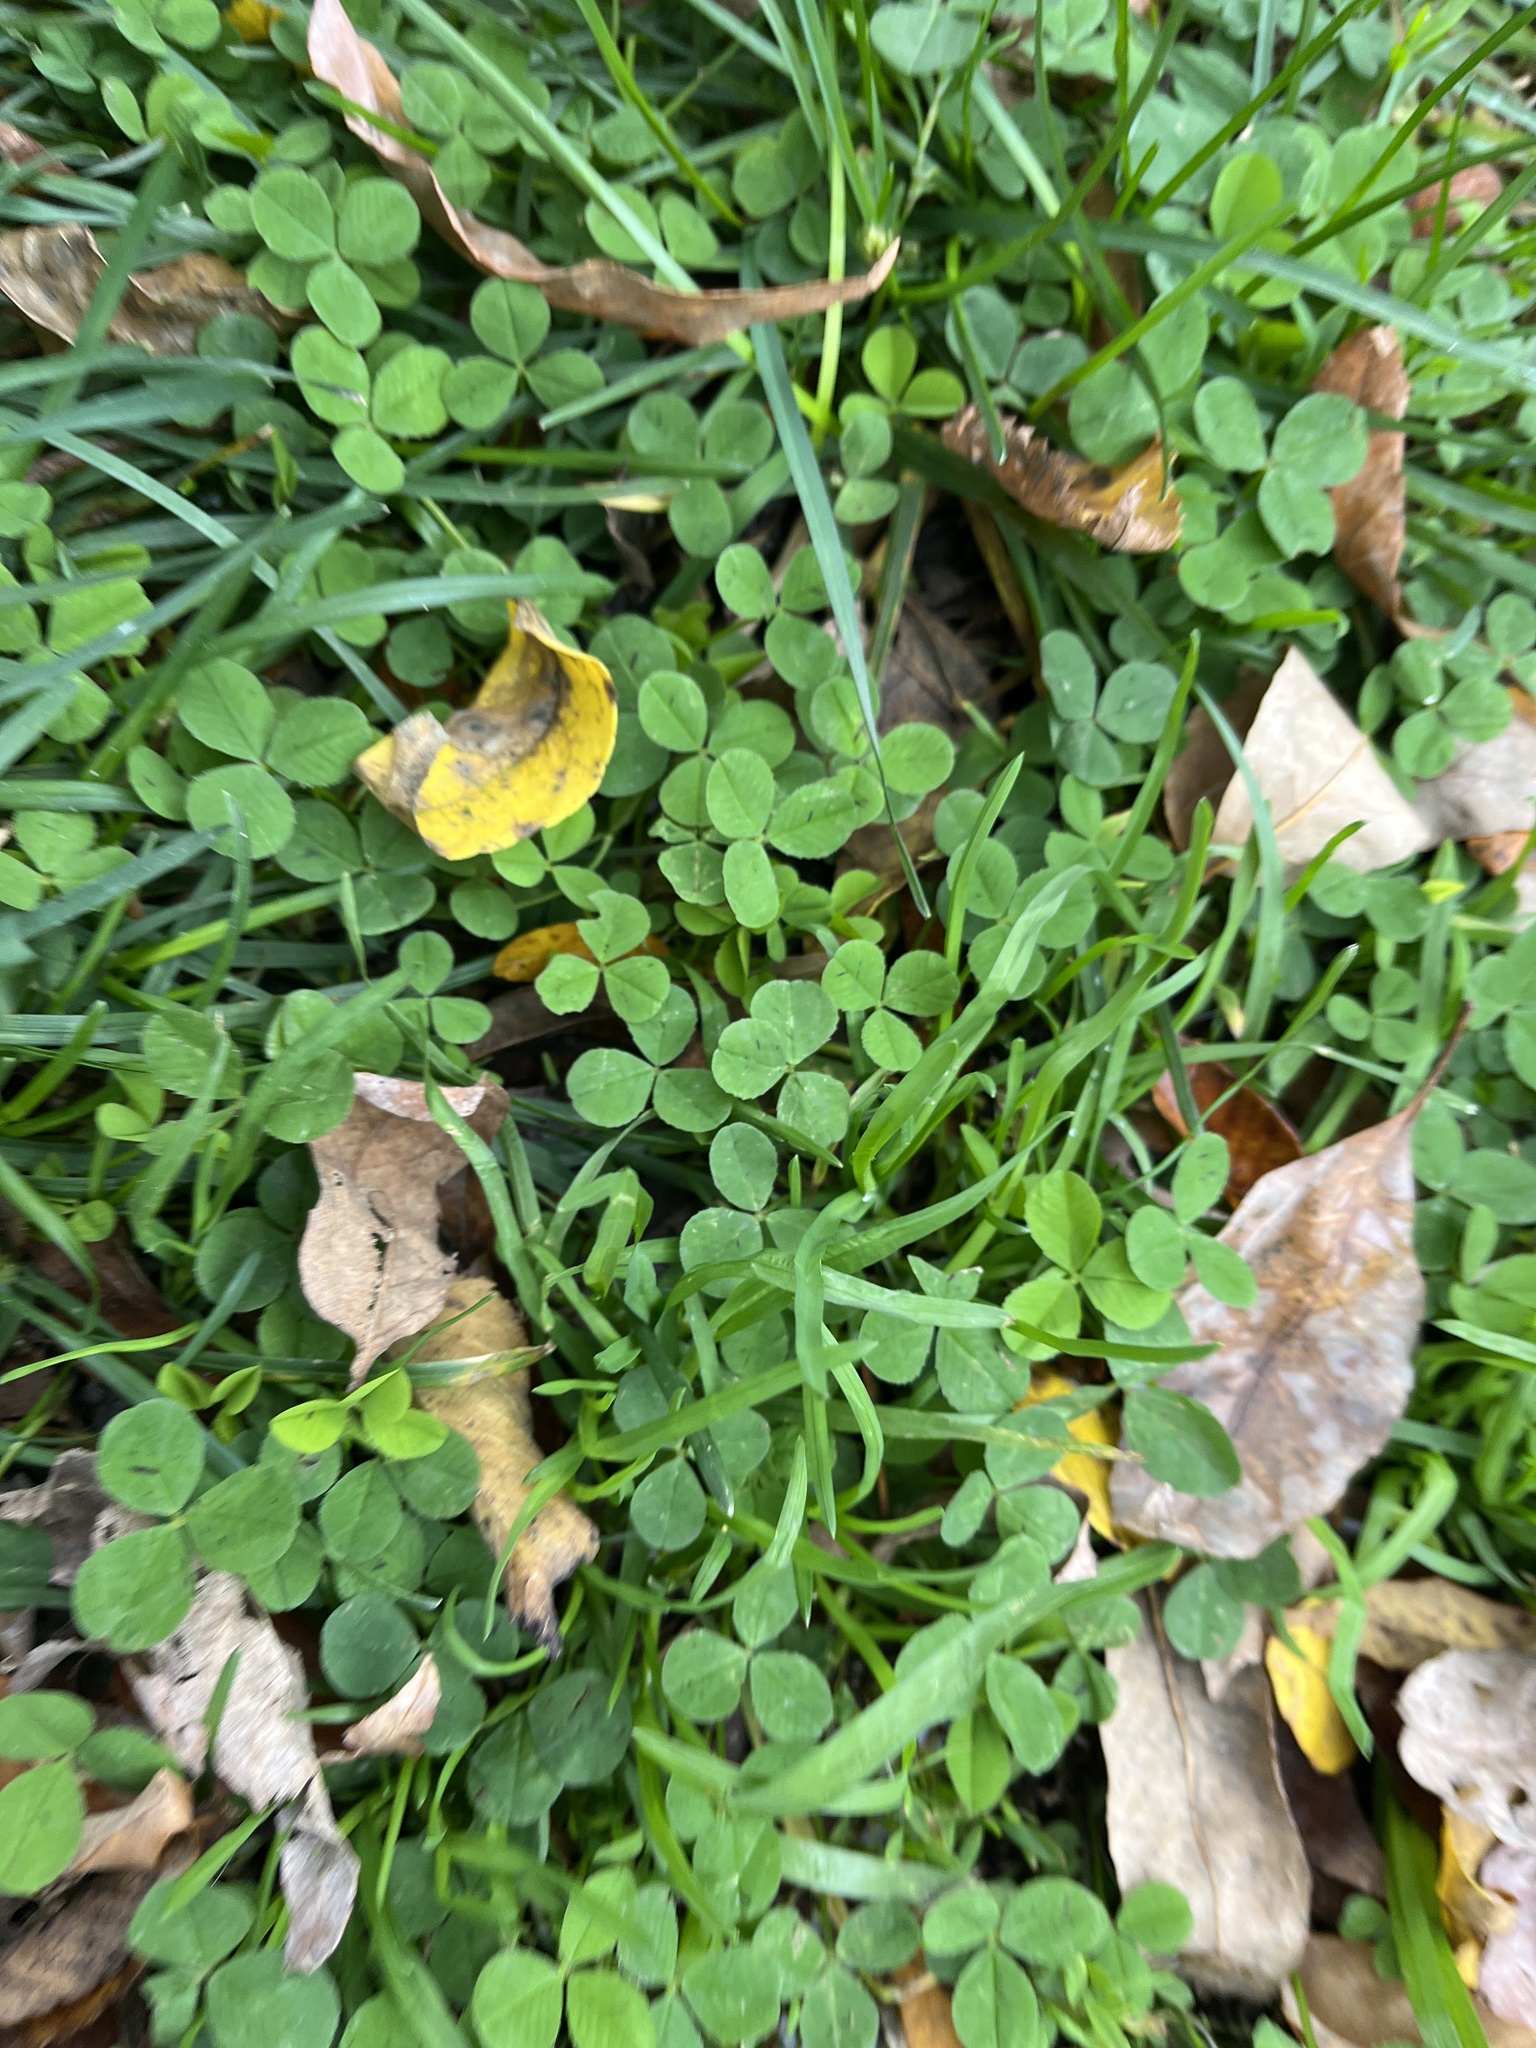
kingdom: Plantae
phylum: Tracheophyta
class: Magnoliopsida
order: Fabales
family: Fabaceae
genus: Trifolium
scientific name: Trifolium repens
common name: White clover
